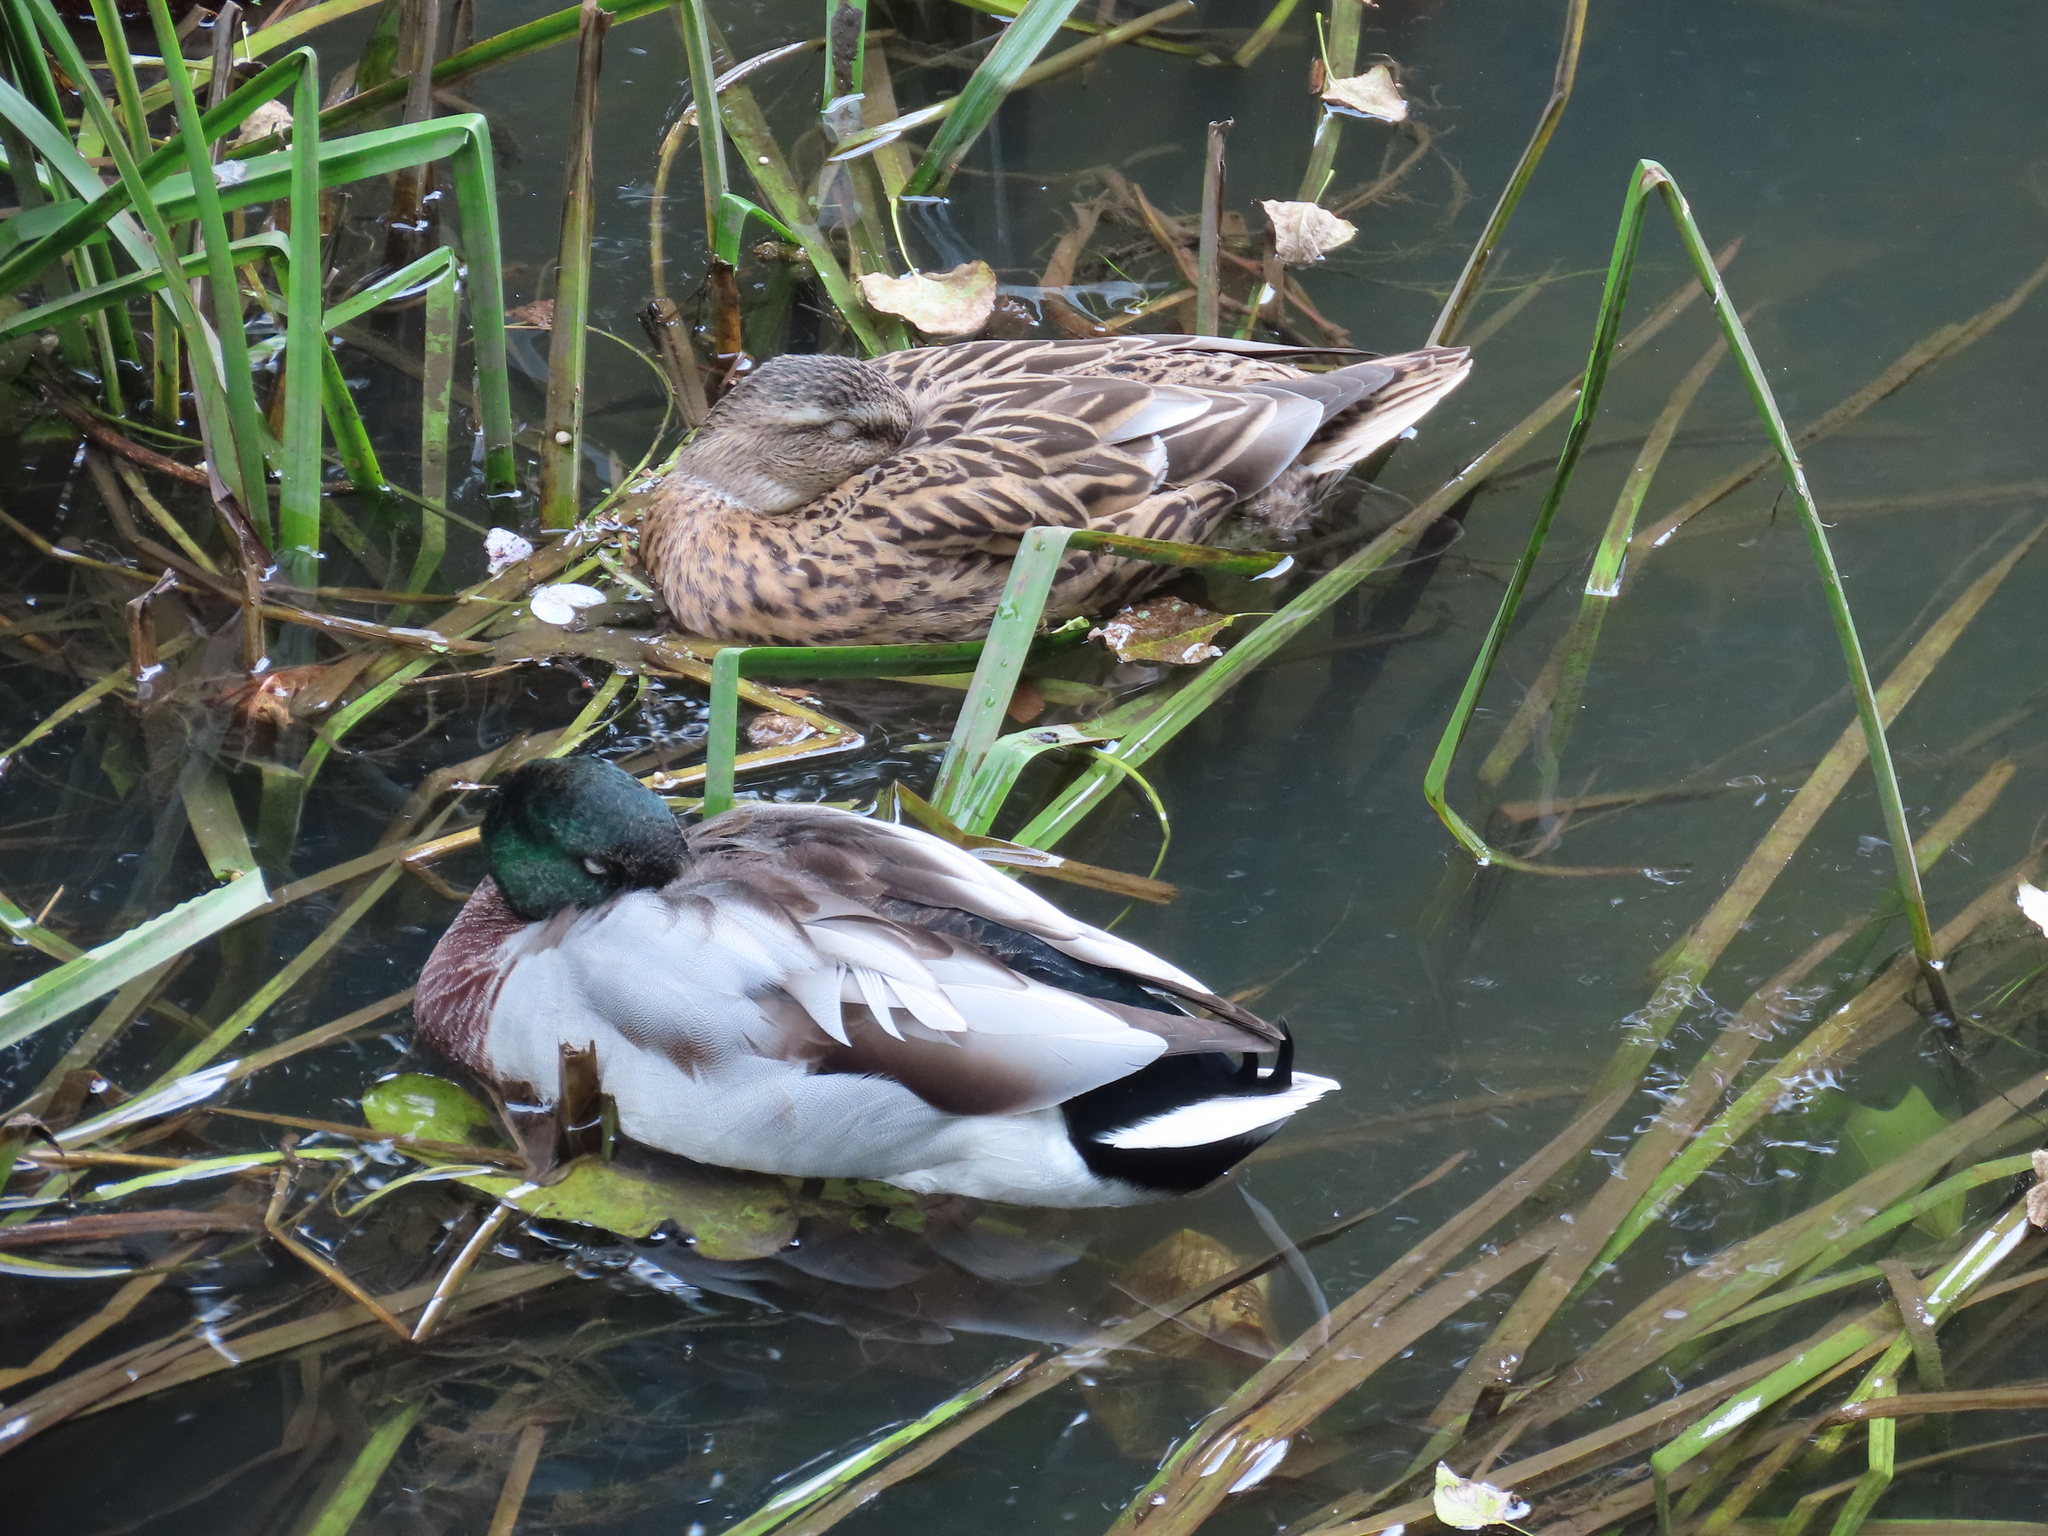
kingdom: Animalia
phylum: Chordata
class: Aves
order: Anseriformes
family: Anatidae
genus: Anas
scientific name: Anas platyrhynchos
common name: Mallard
